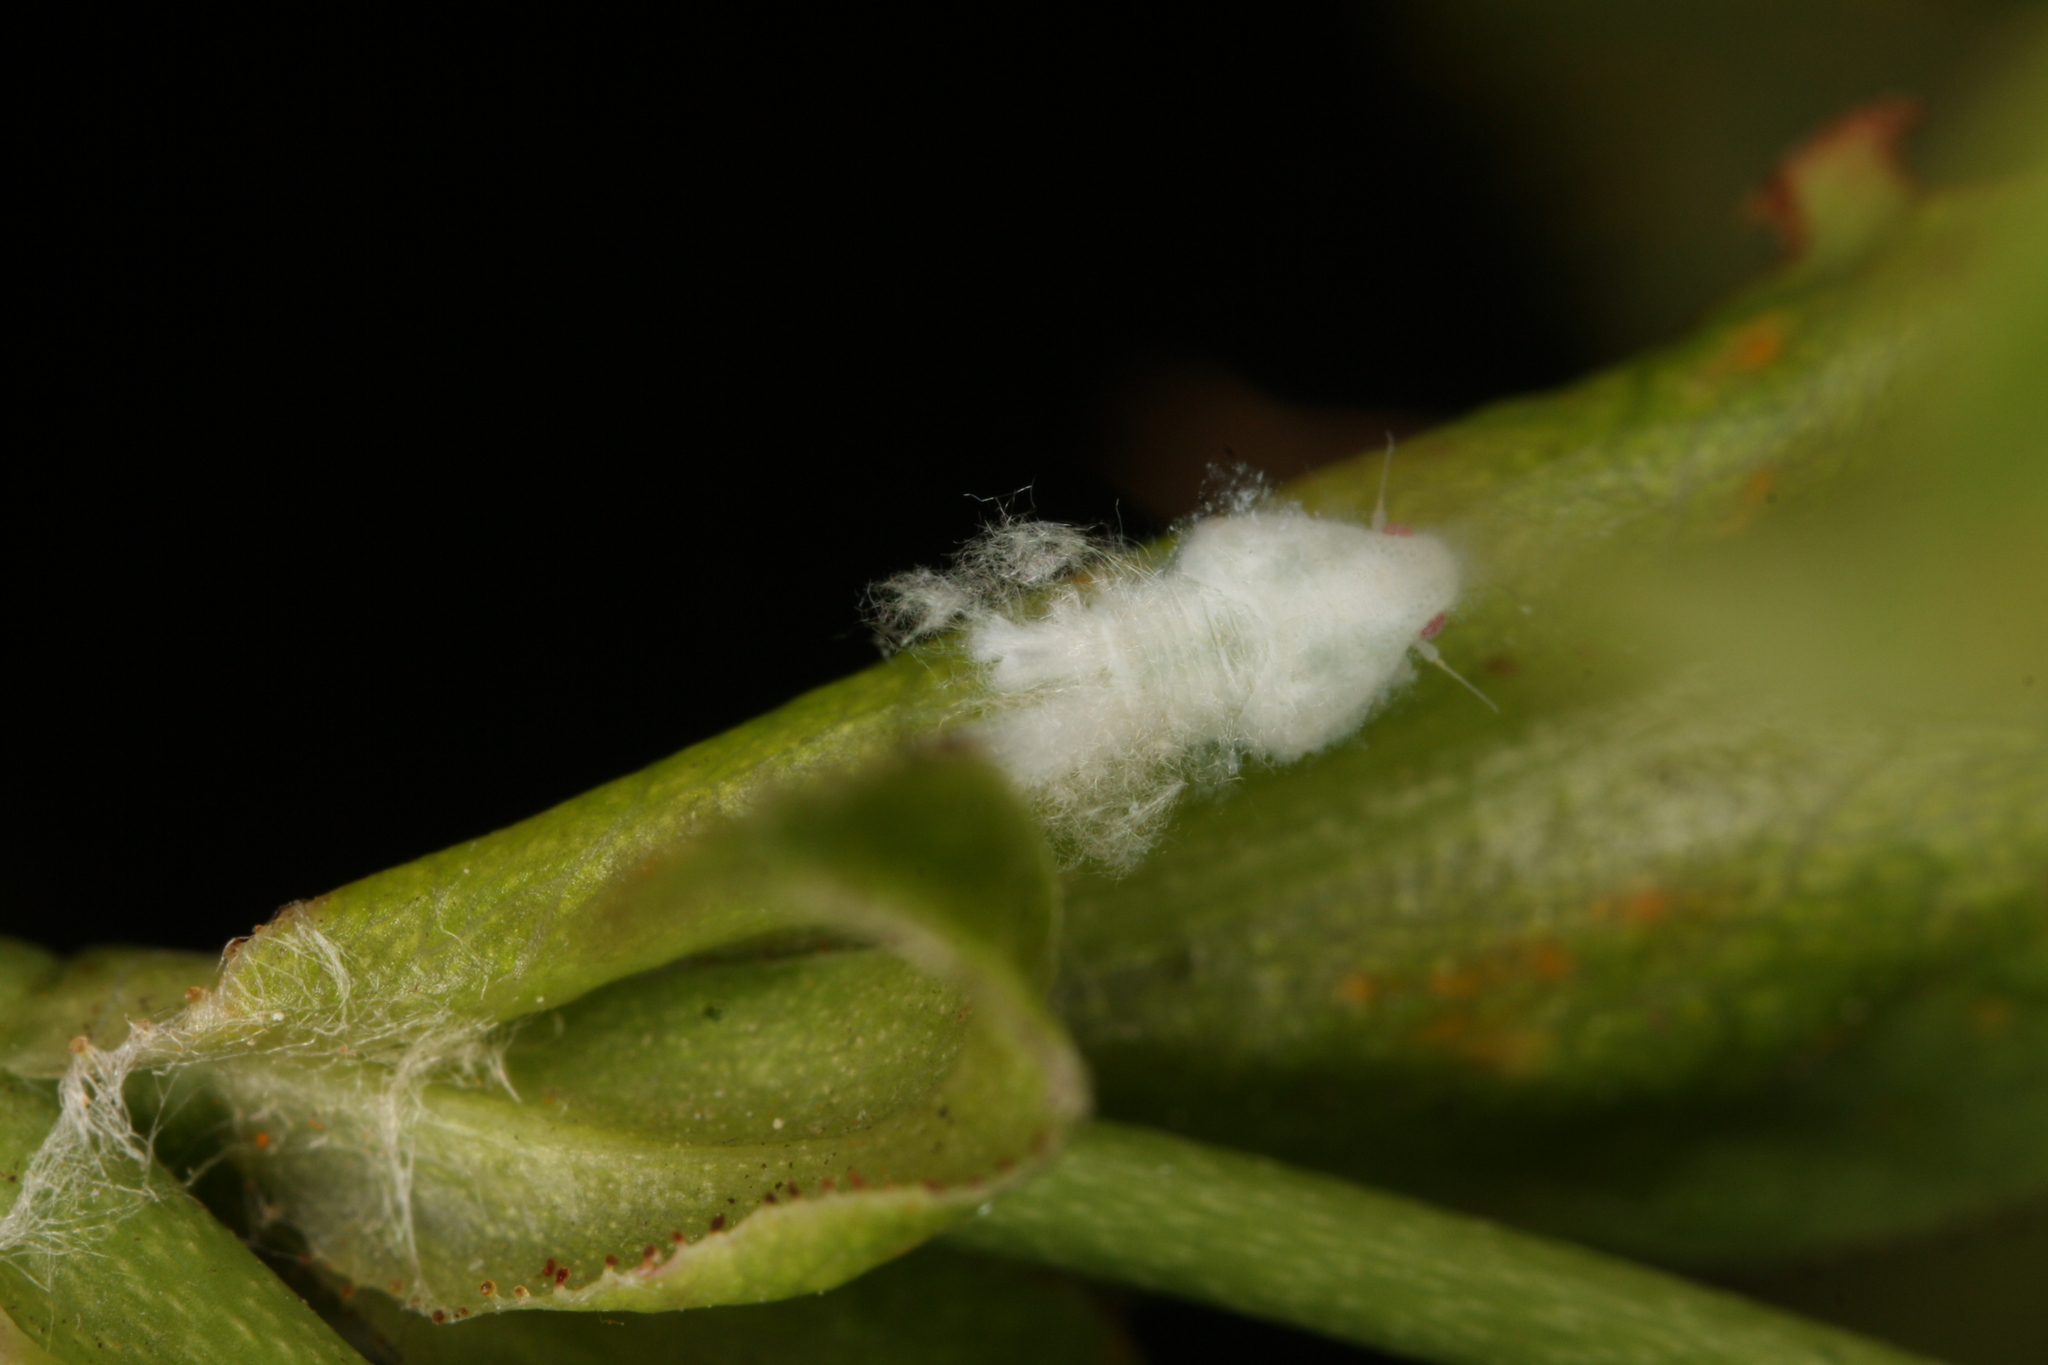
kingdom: Animalia
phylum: Arthropoda
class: Insecta
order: Hemiptera
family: Flatidae
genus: Metcalfa
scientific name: Metcalfa pruinosa
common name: Citrus flatid planthopper
